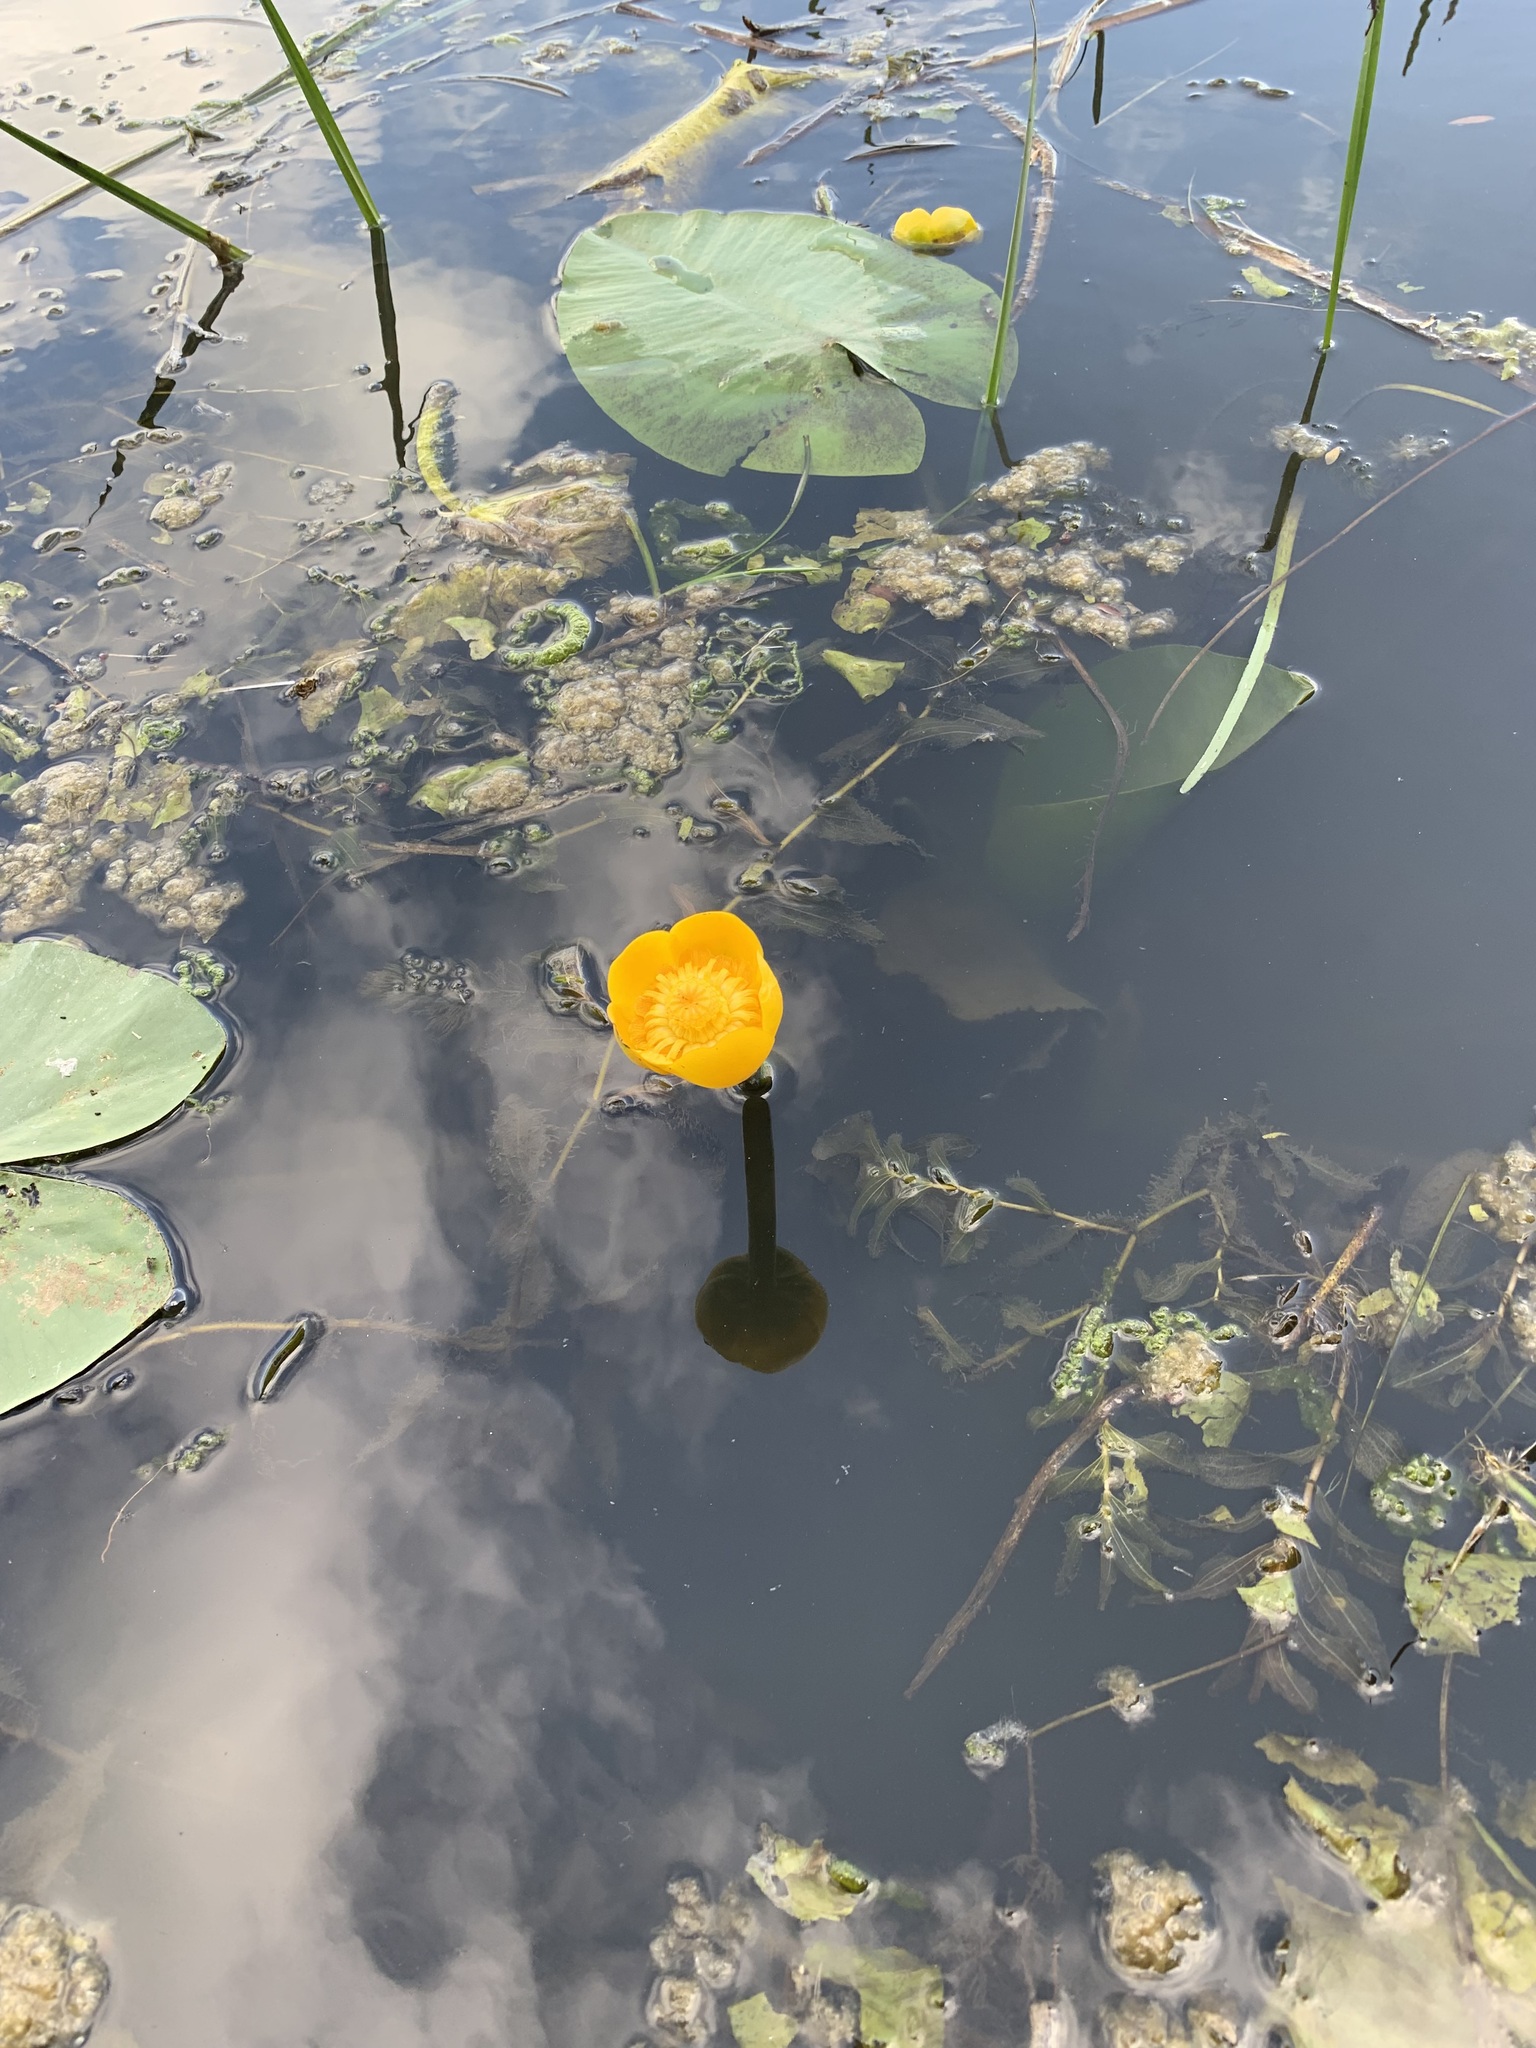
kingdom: Plantae
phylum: Tracheophyta
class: Magnoliopsida
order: Nymphaeales
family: Nymphaeaceae
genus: Nuphar
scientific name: Nuphar lutea
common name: Yellow water-lily
